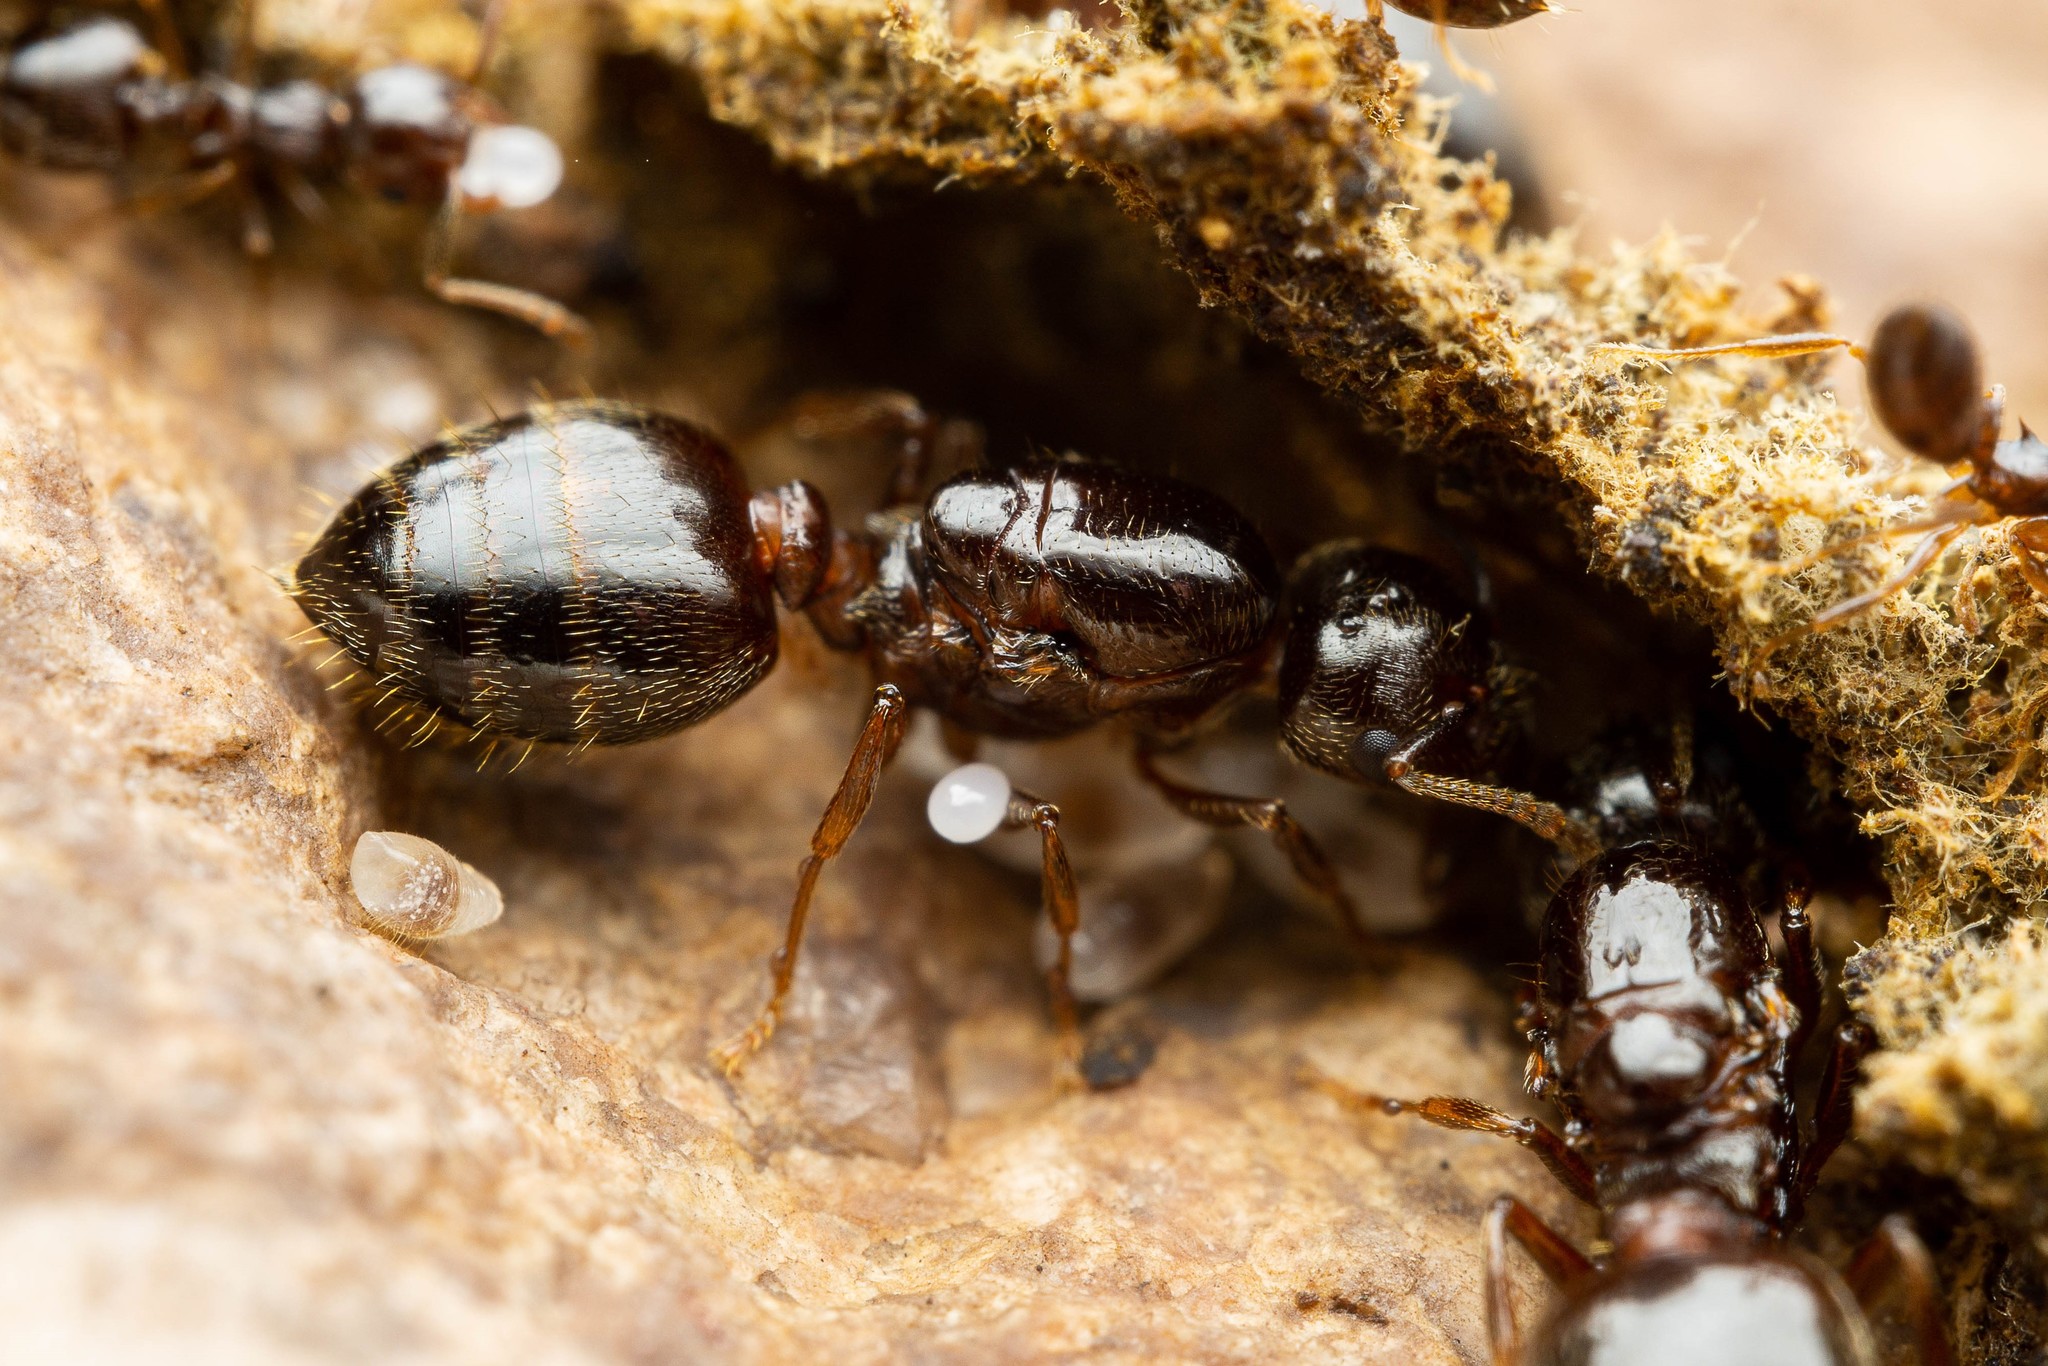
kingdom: Animalia
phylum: Arthropoda
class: Insecta
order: Hymenoptera
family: Formicidae
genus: Crematogaster
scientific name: Crematogaster emeryana
